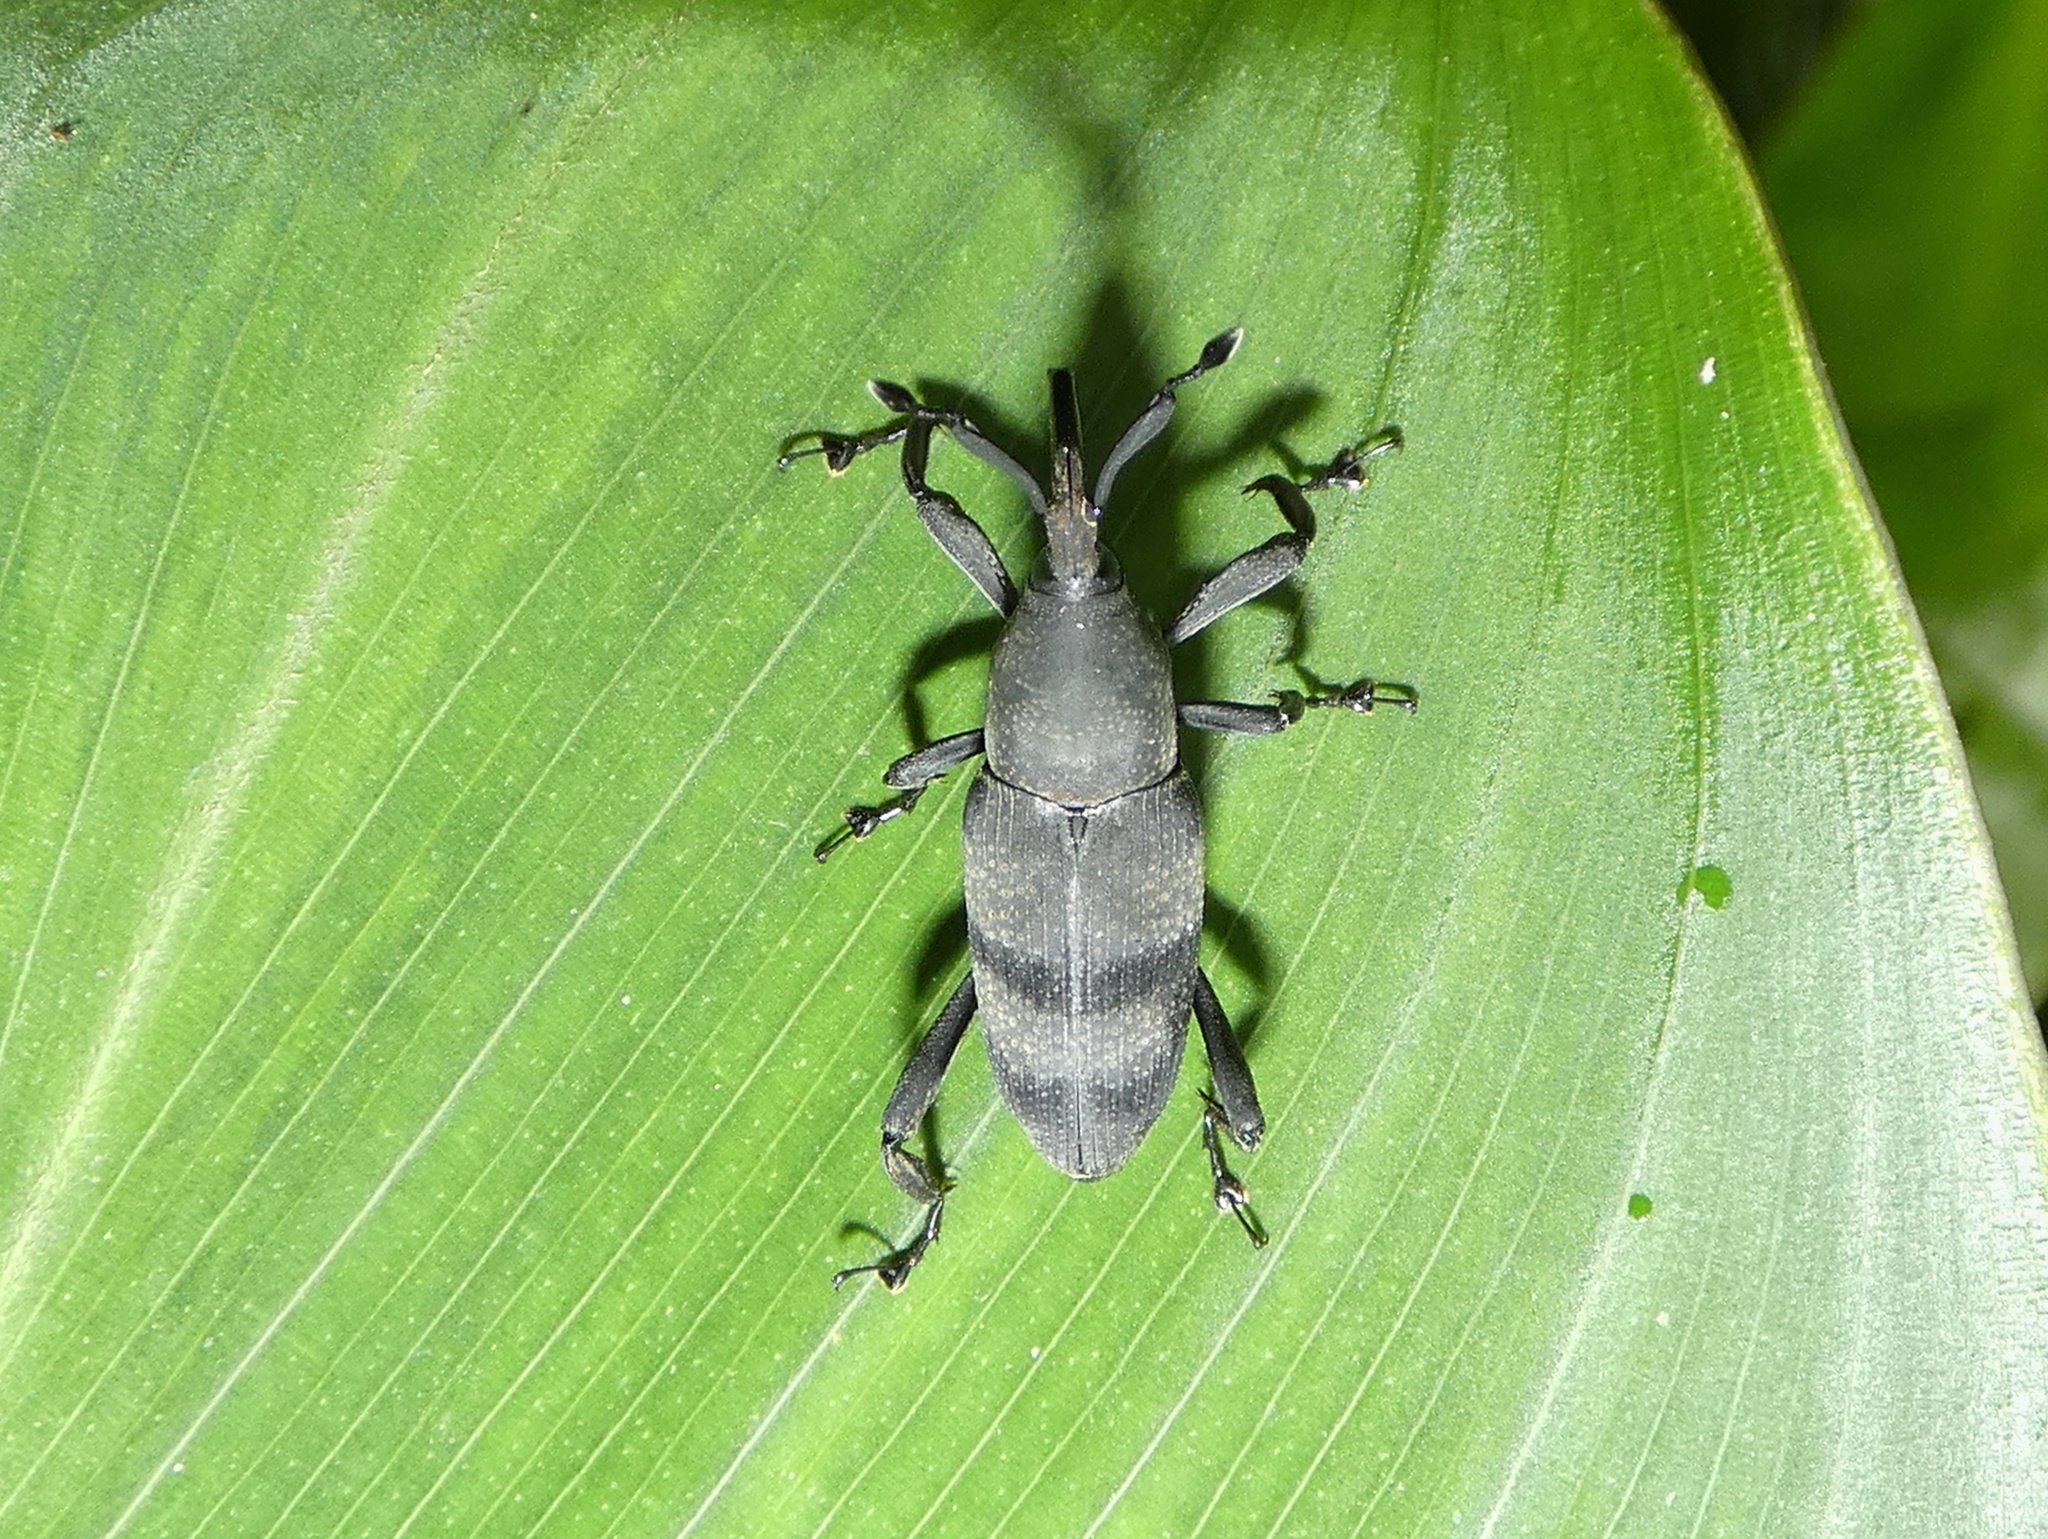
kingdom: Animalia
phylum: Arthropoda
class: Insecta
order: Coleoptera
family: Dryophthoridae
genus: Rhodobaenus
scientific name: Rhodobaenus
